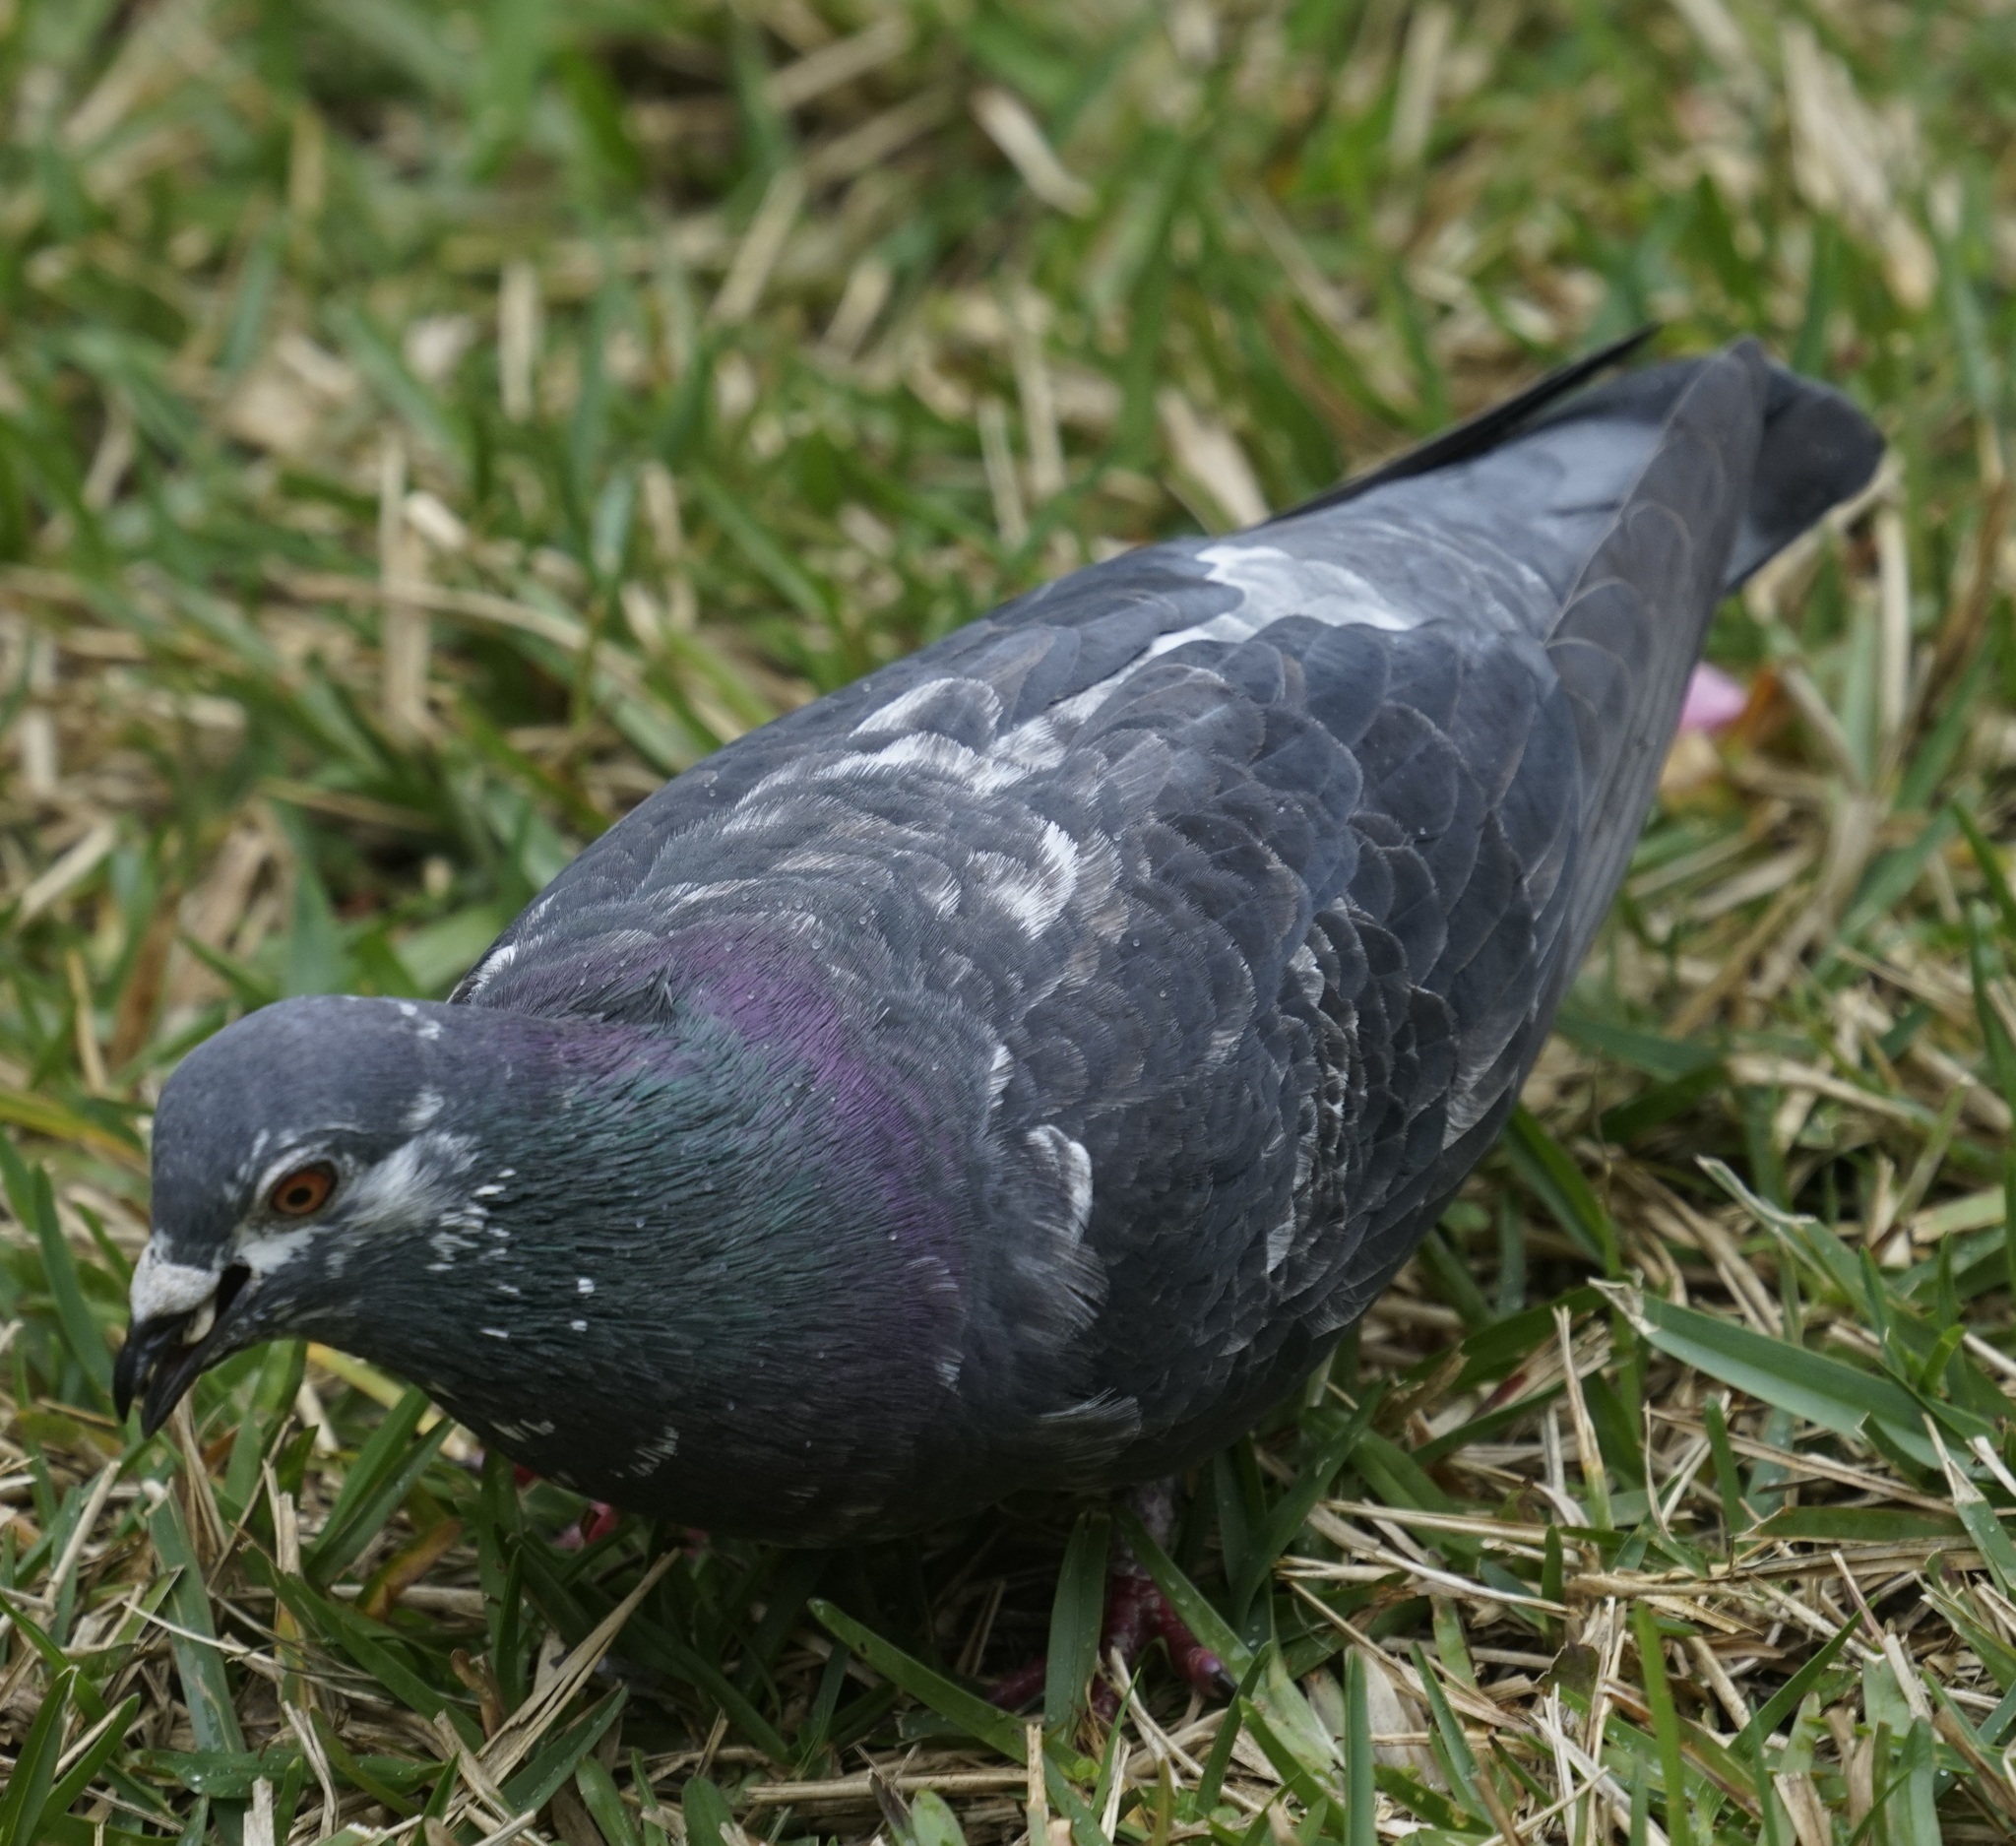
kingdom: Animalia
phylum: Chordata
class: Aves
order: Columbiformes
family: Columbidae
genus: Columba
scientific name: Columba livia
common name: Rock pigeon
